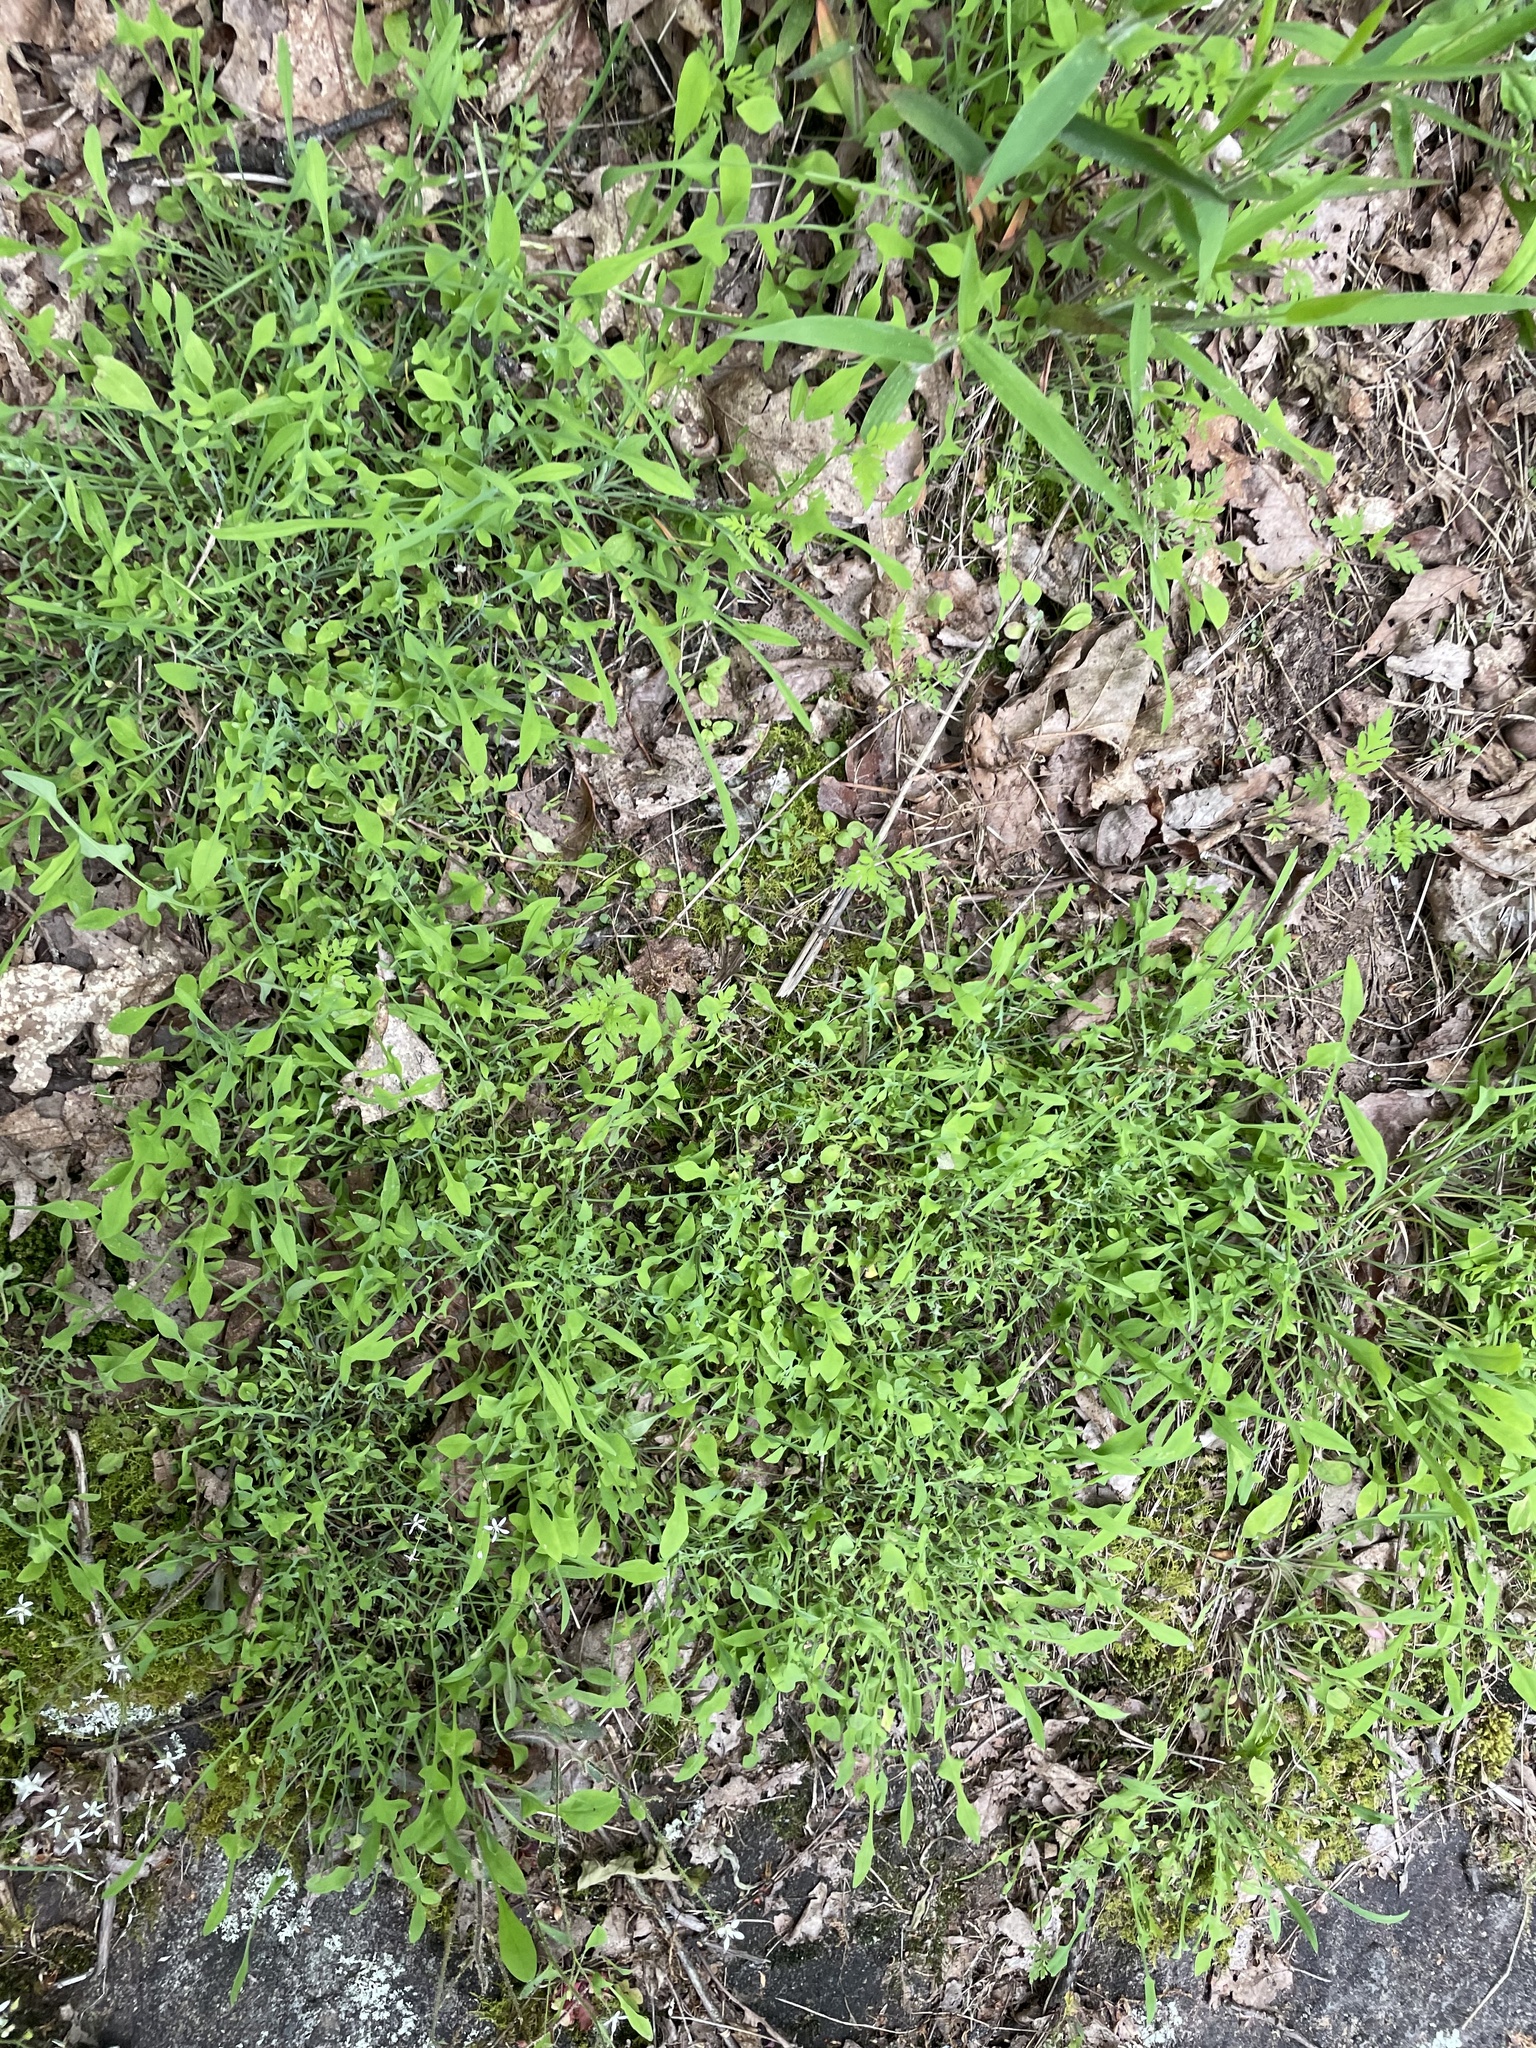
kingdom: Plantae
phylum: Tracheophyta
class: Magnoliopsida
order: Asterales
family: Asteraceae
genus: Krigia
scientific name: Krigia montana
